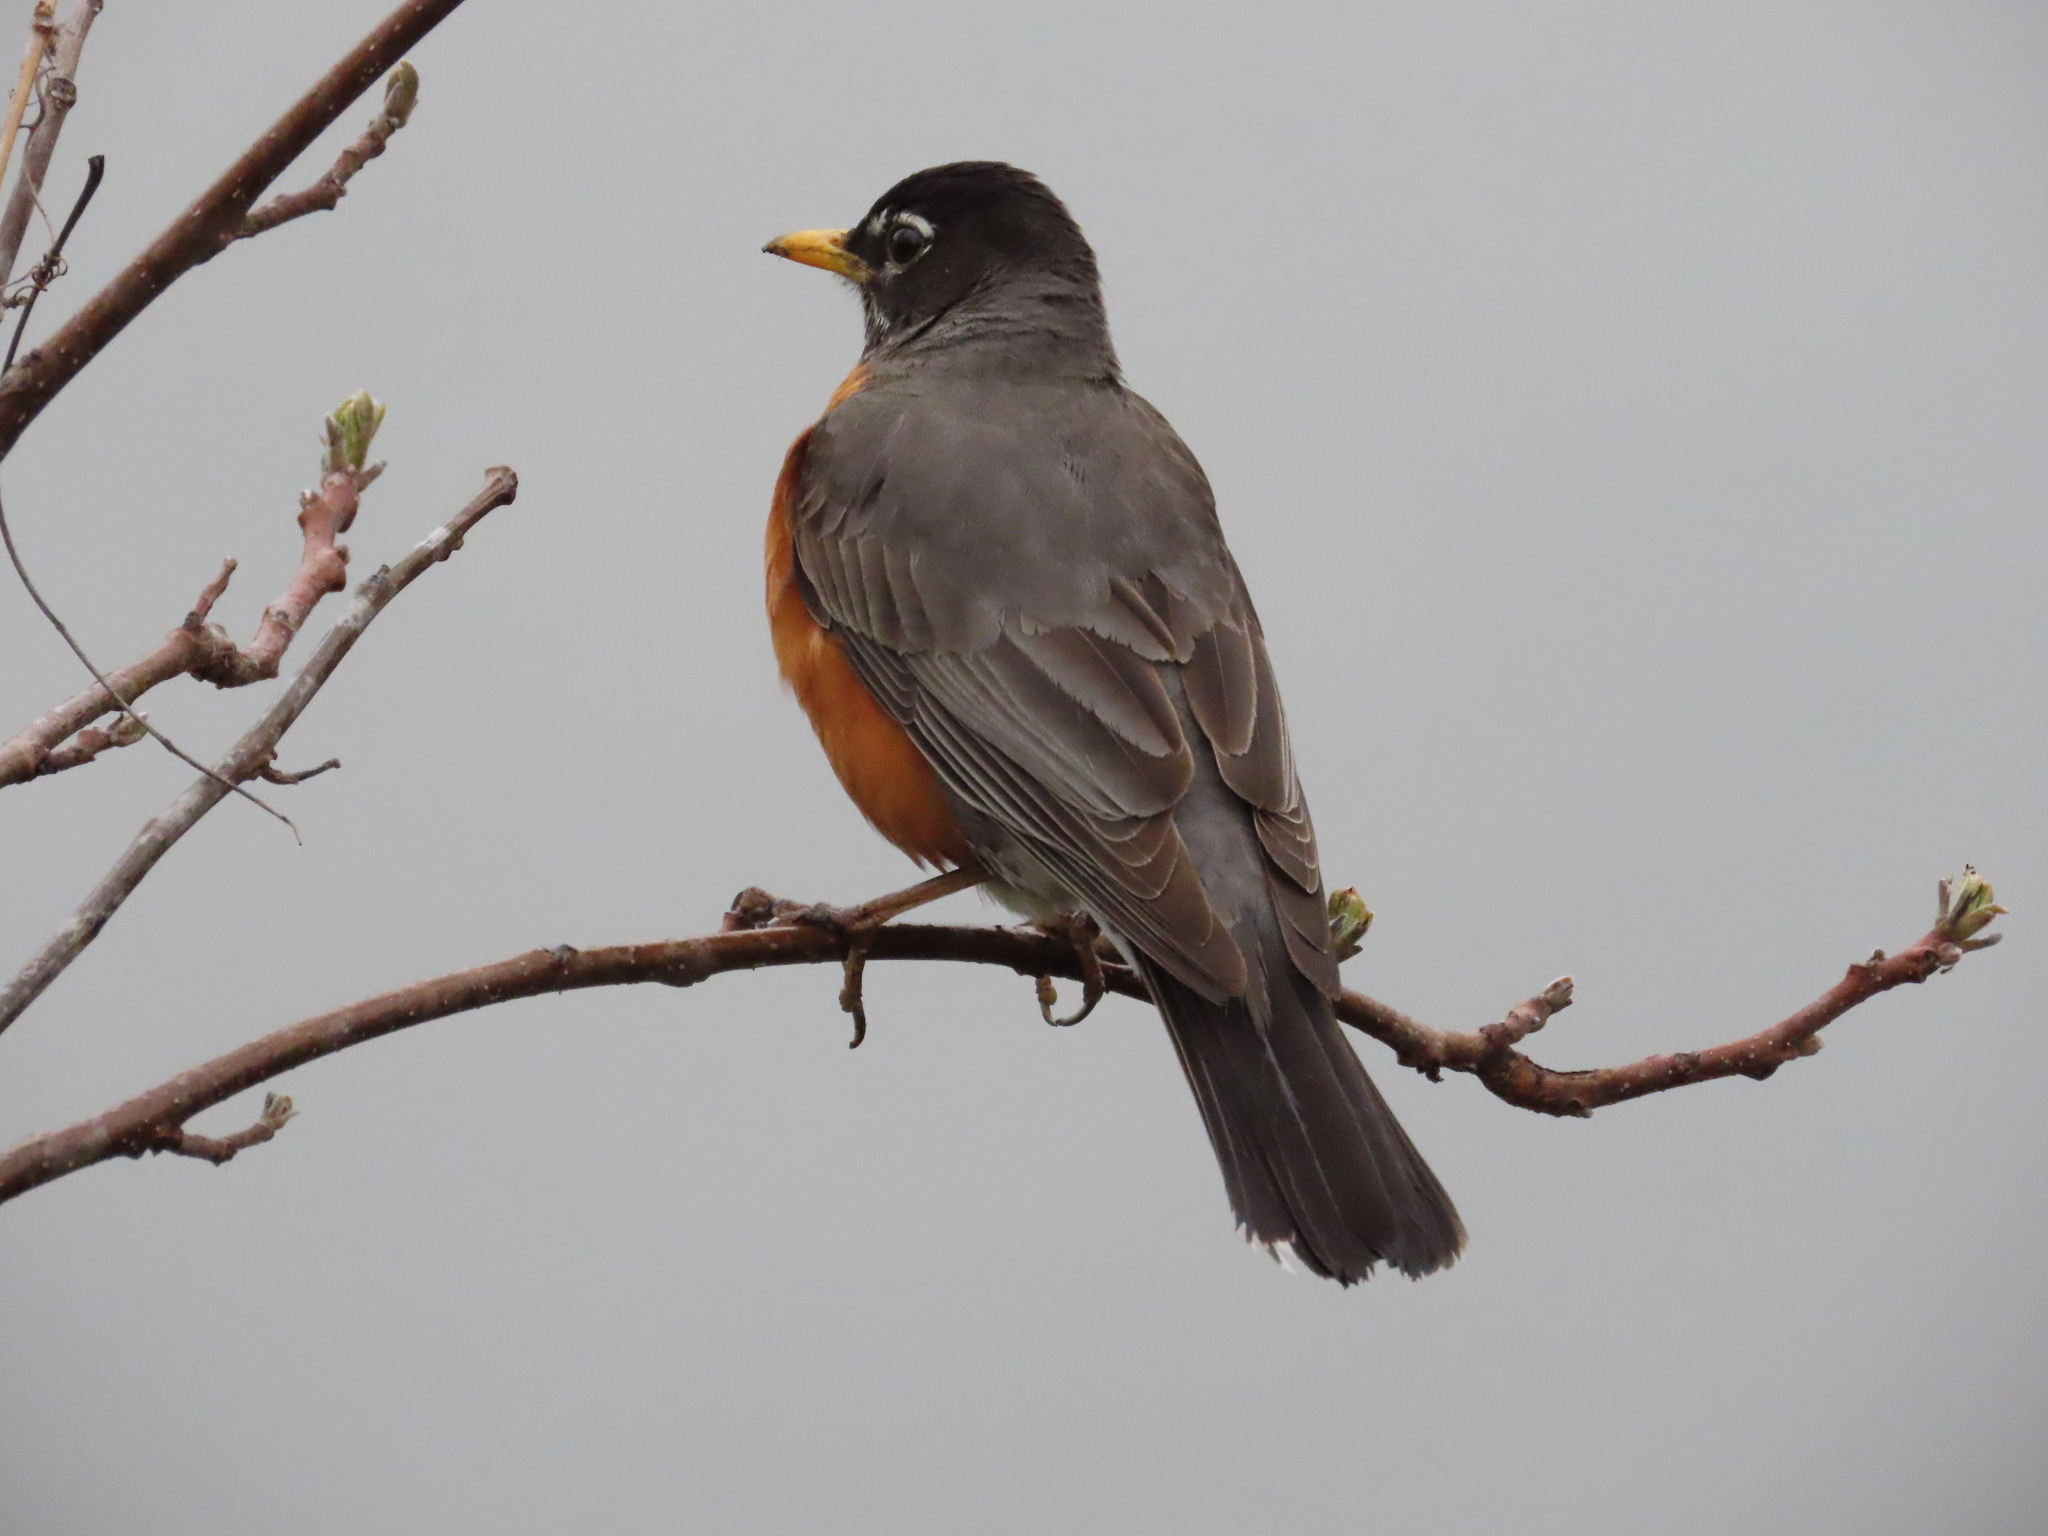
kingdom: Animalia
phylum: Chordata
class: Aves
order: Passeriformes
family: Turdidae
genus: Turdus
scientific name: Turdus migratorius
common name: American robin
